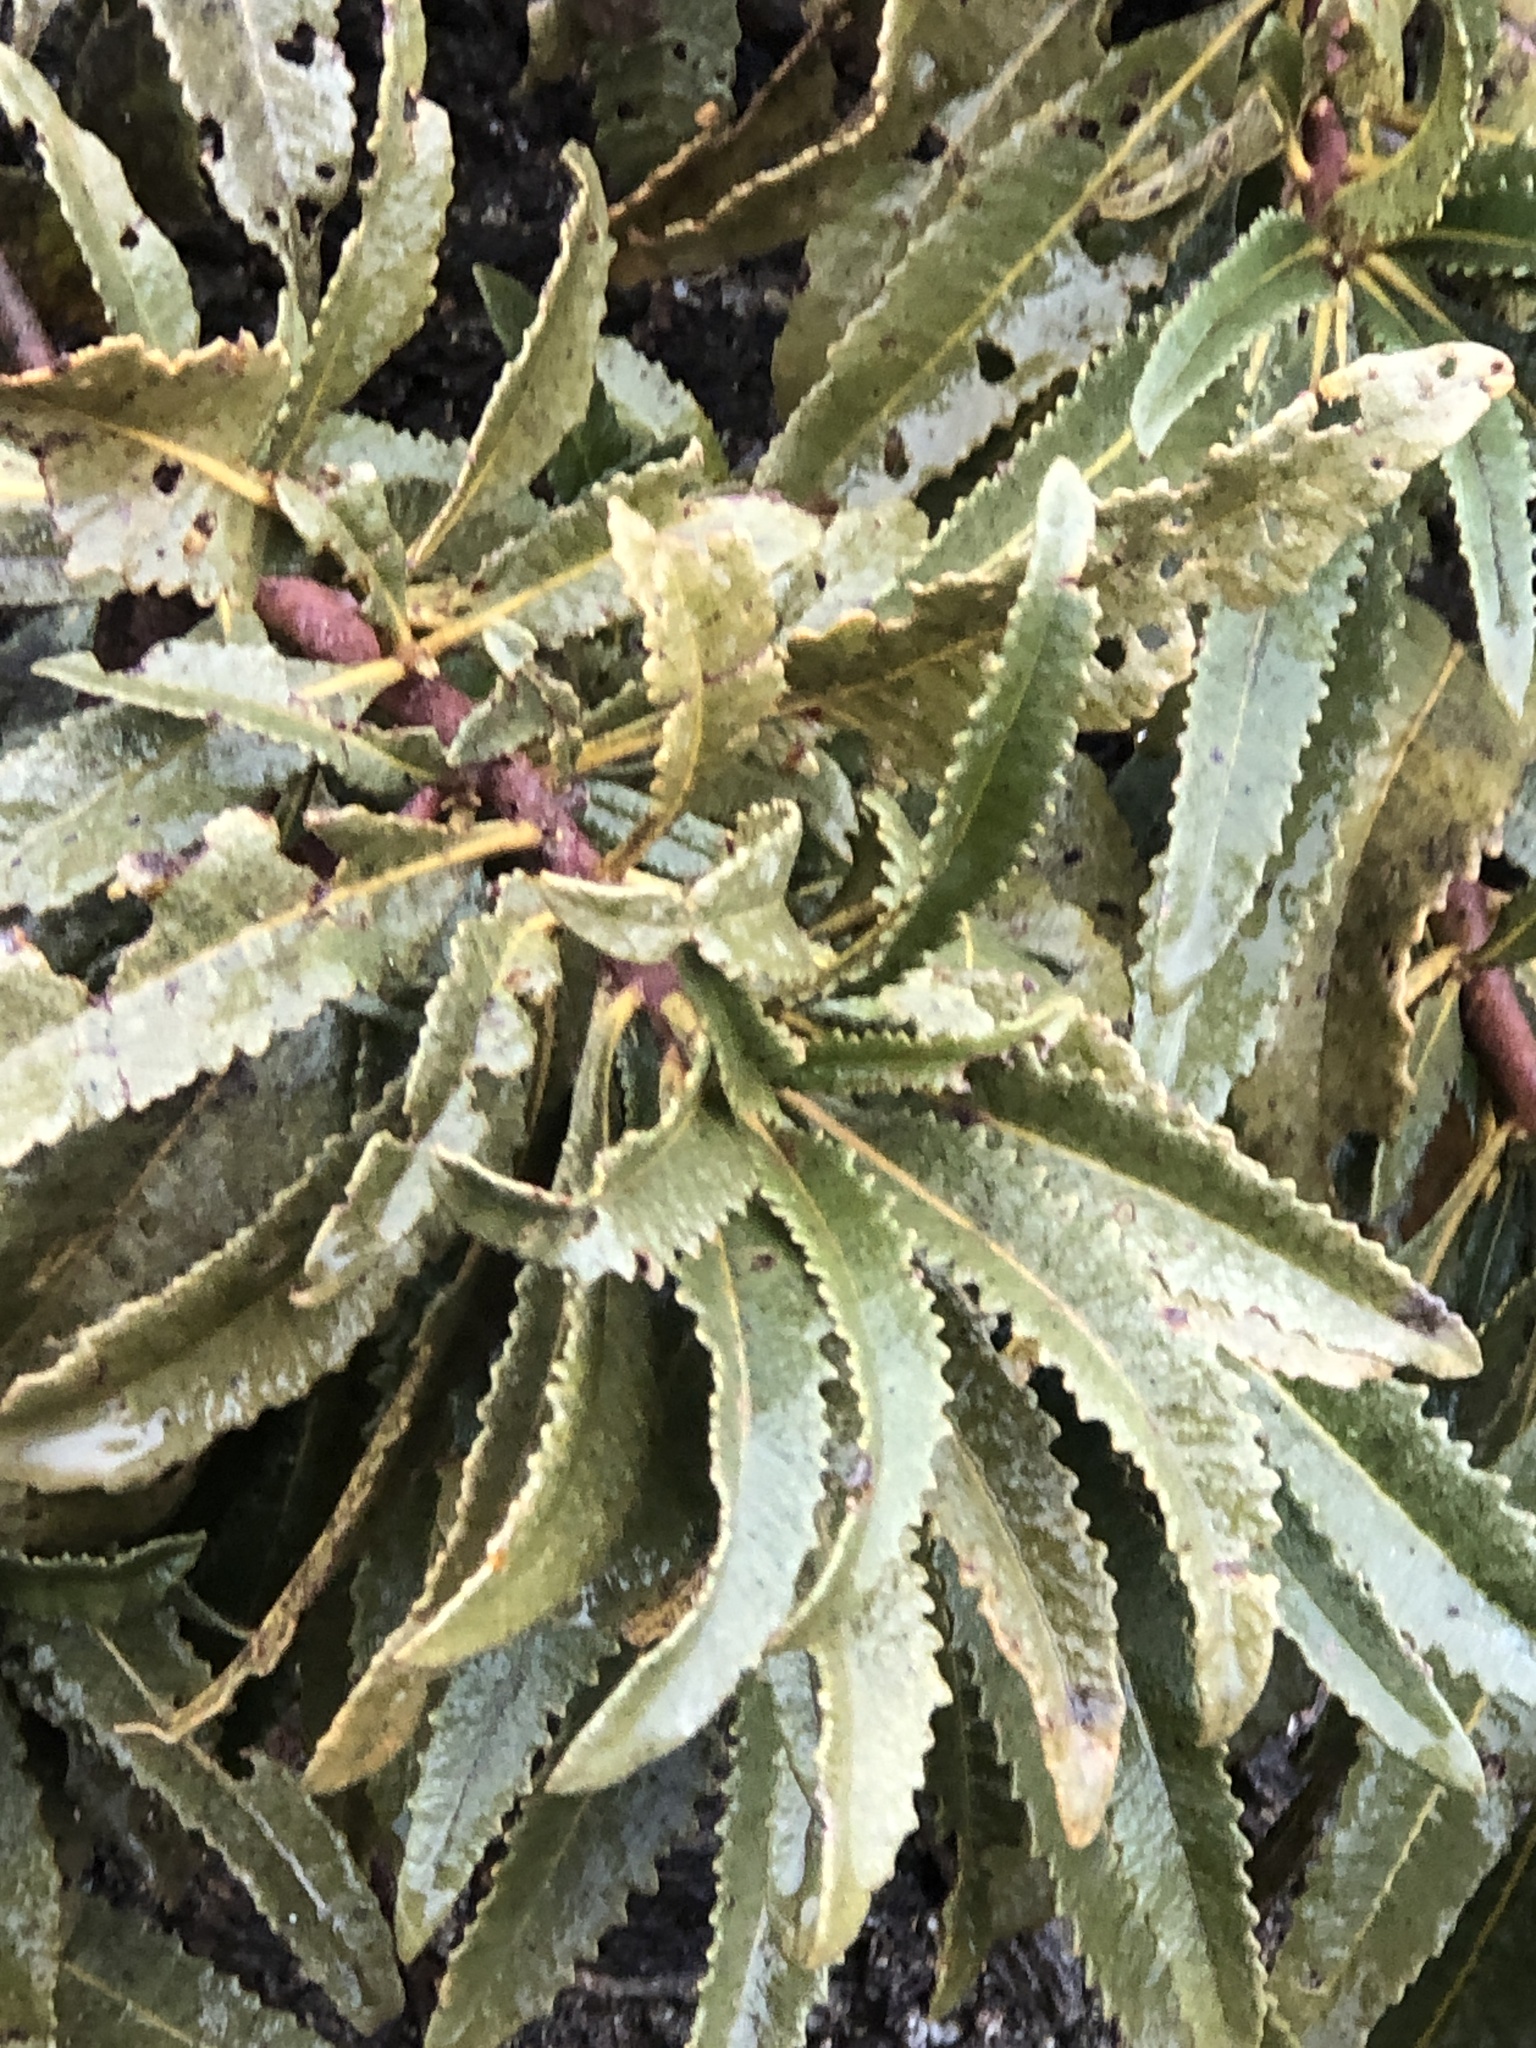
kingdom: Plantae
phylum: Tracheophyta
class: Magnoliopsida
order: Boraginales
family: Namaceae
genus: Eriodictyon
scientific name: Eriodictyon trichocalyx
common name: Hairy yerba-santa
